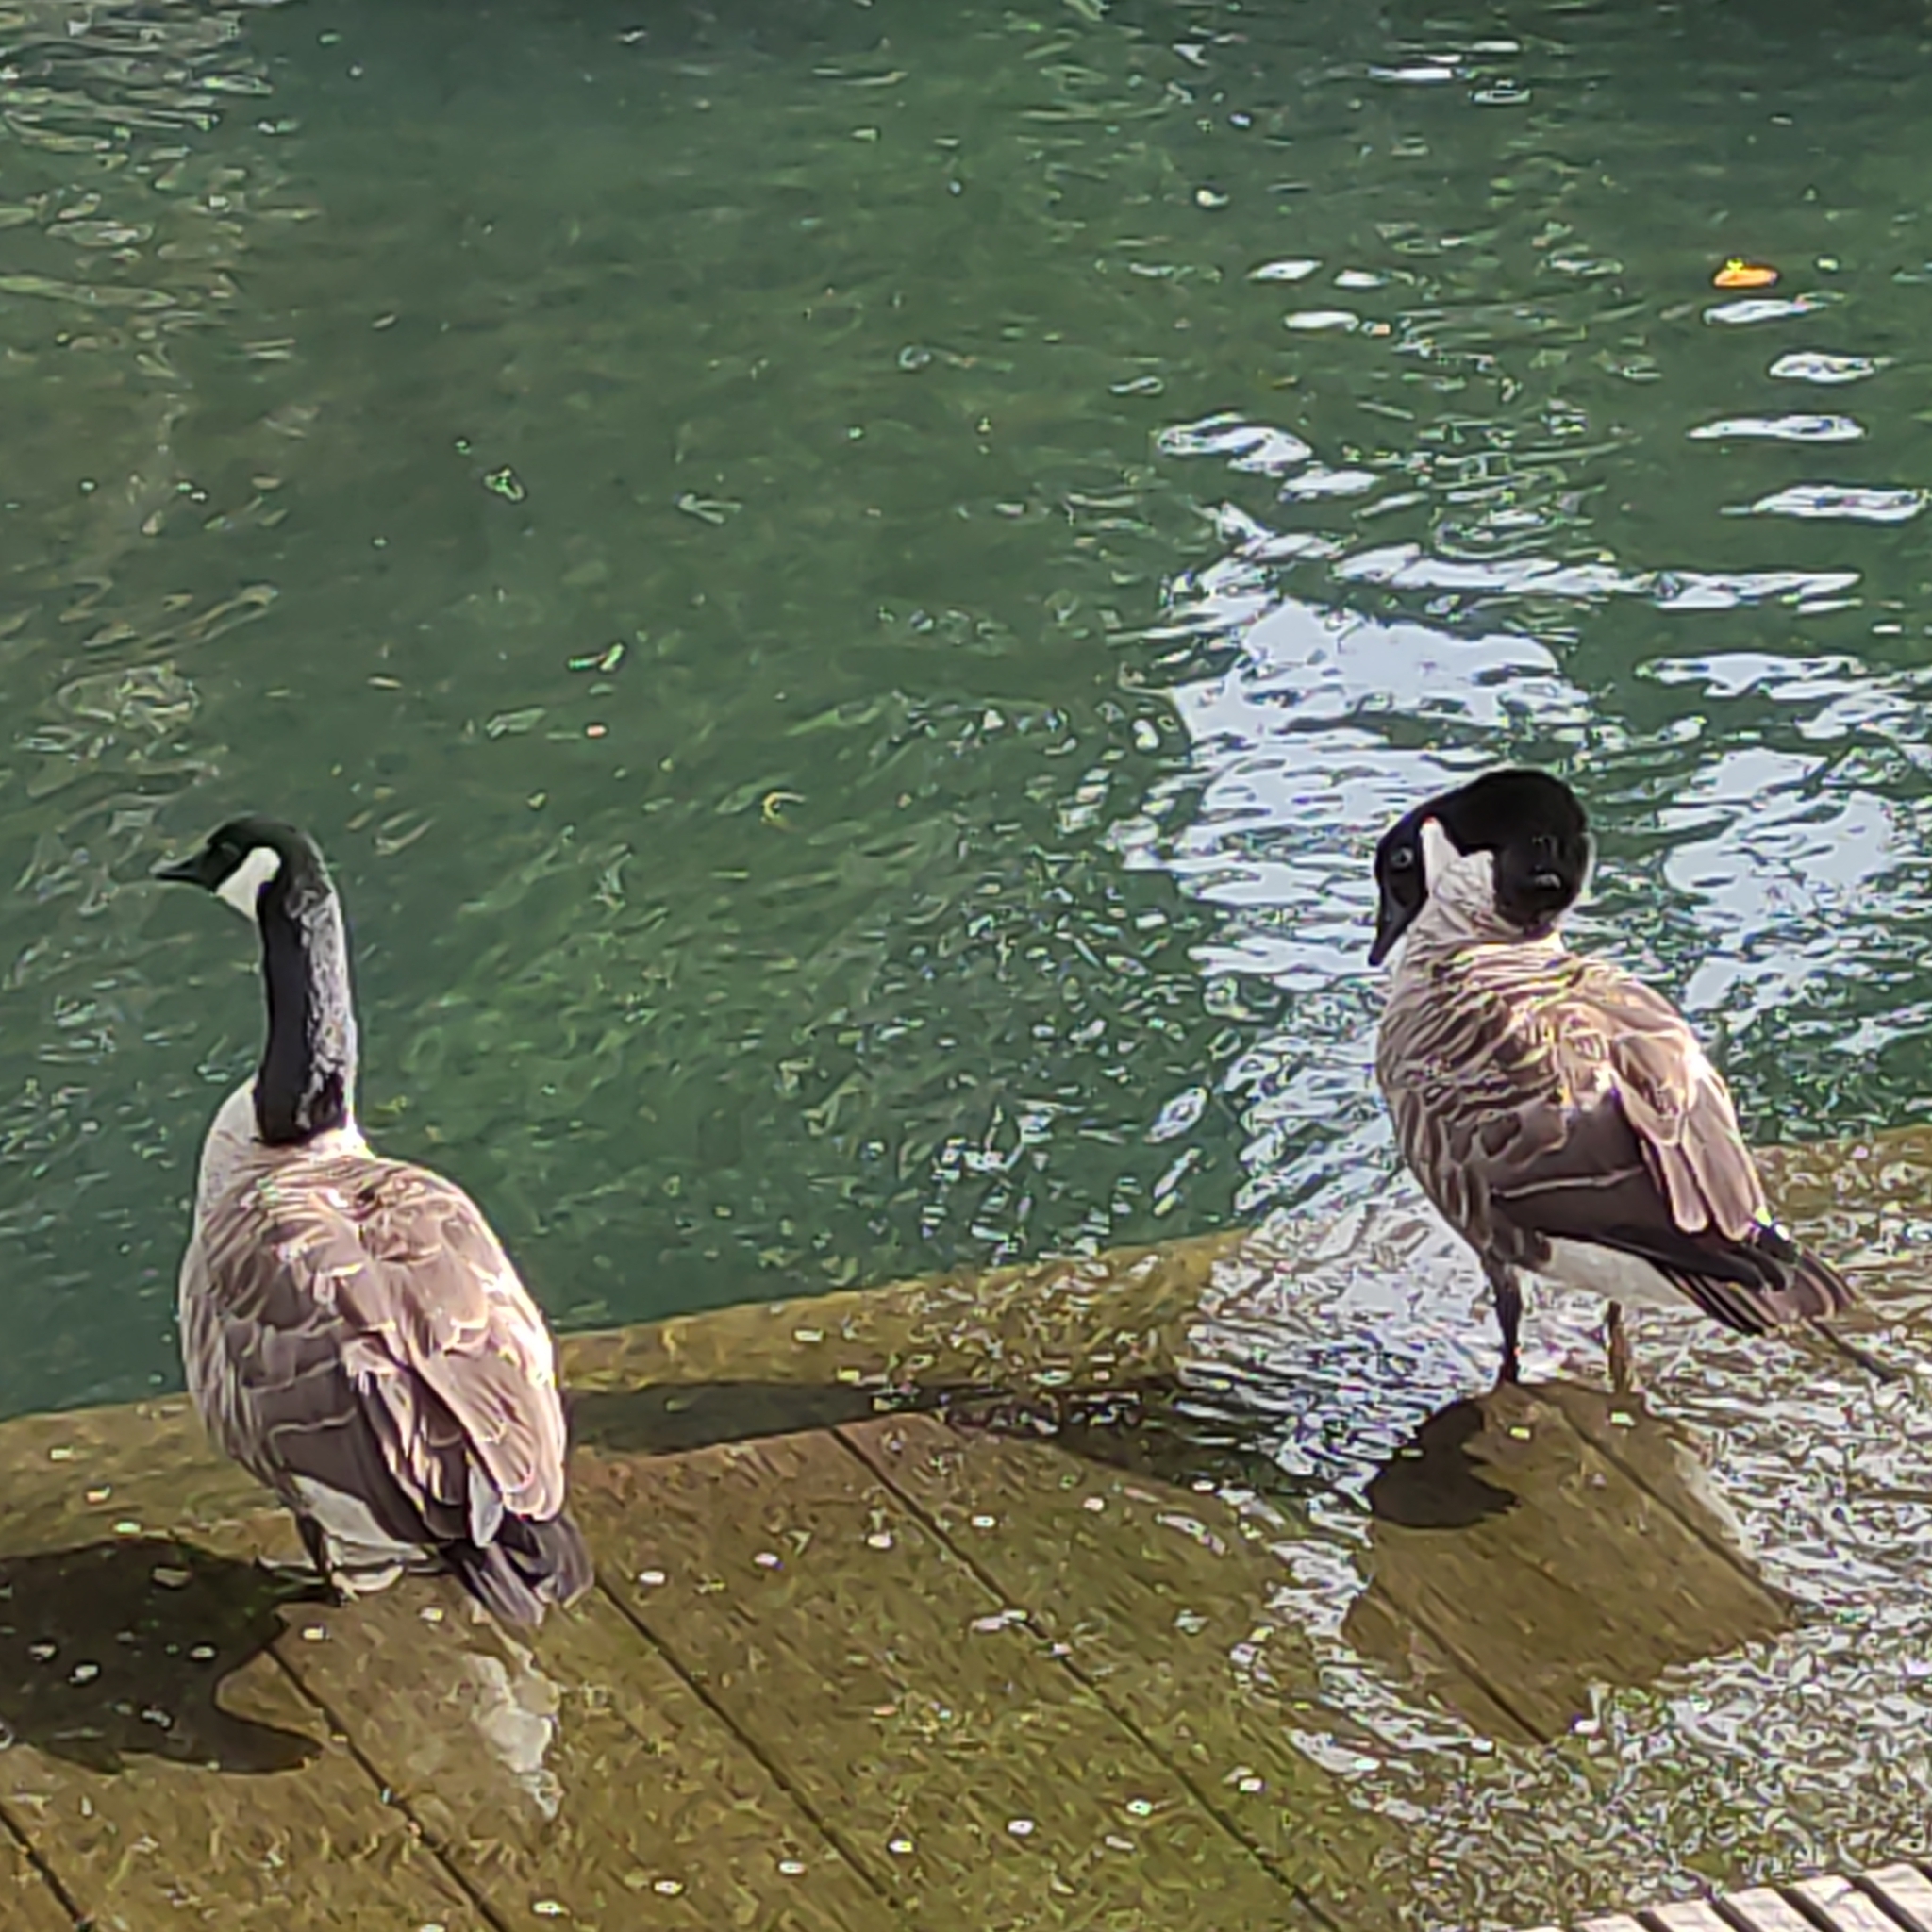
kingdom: Animalia
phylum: Chordata
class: Aves
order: Anseriformes
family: Anatidae
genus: Branta
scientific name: Branta canadensis
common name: Canada goose
